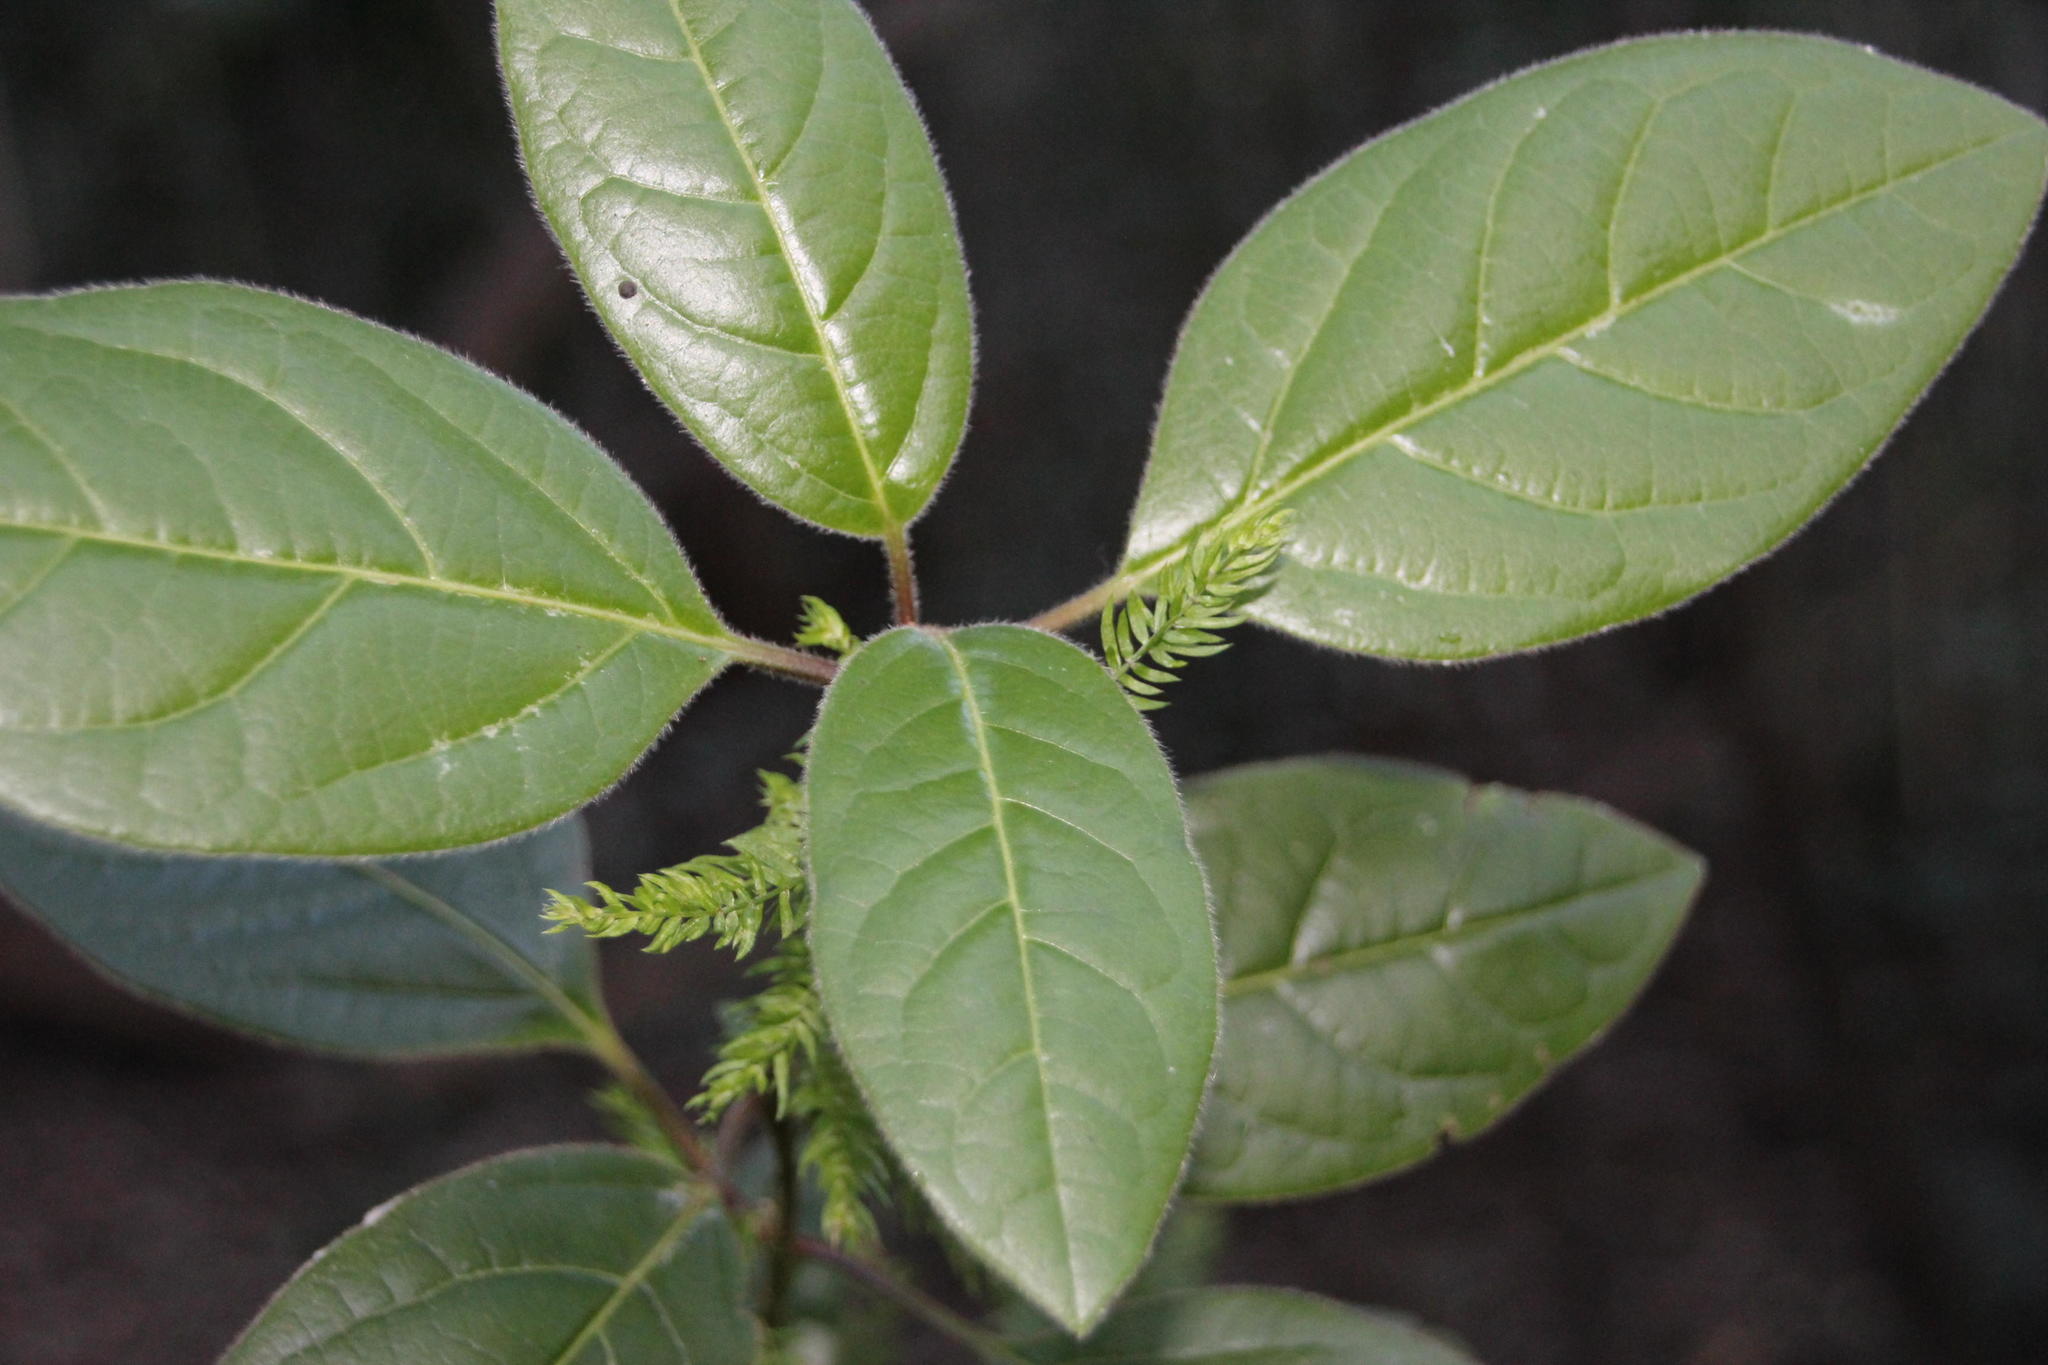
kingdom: Plantae
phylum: Tracheophyta
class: Magnoliopsida
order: Dipsacales
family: Viburnaceae
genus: Viburnum
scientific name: Viburnum tinus
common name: Laurustinus
